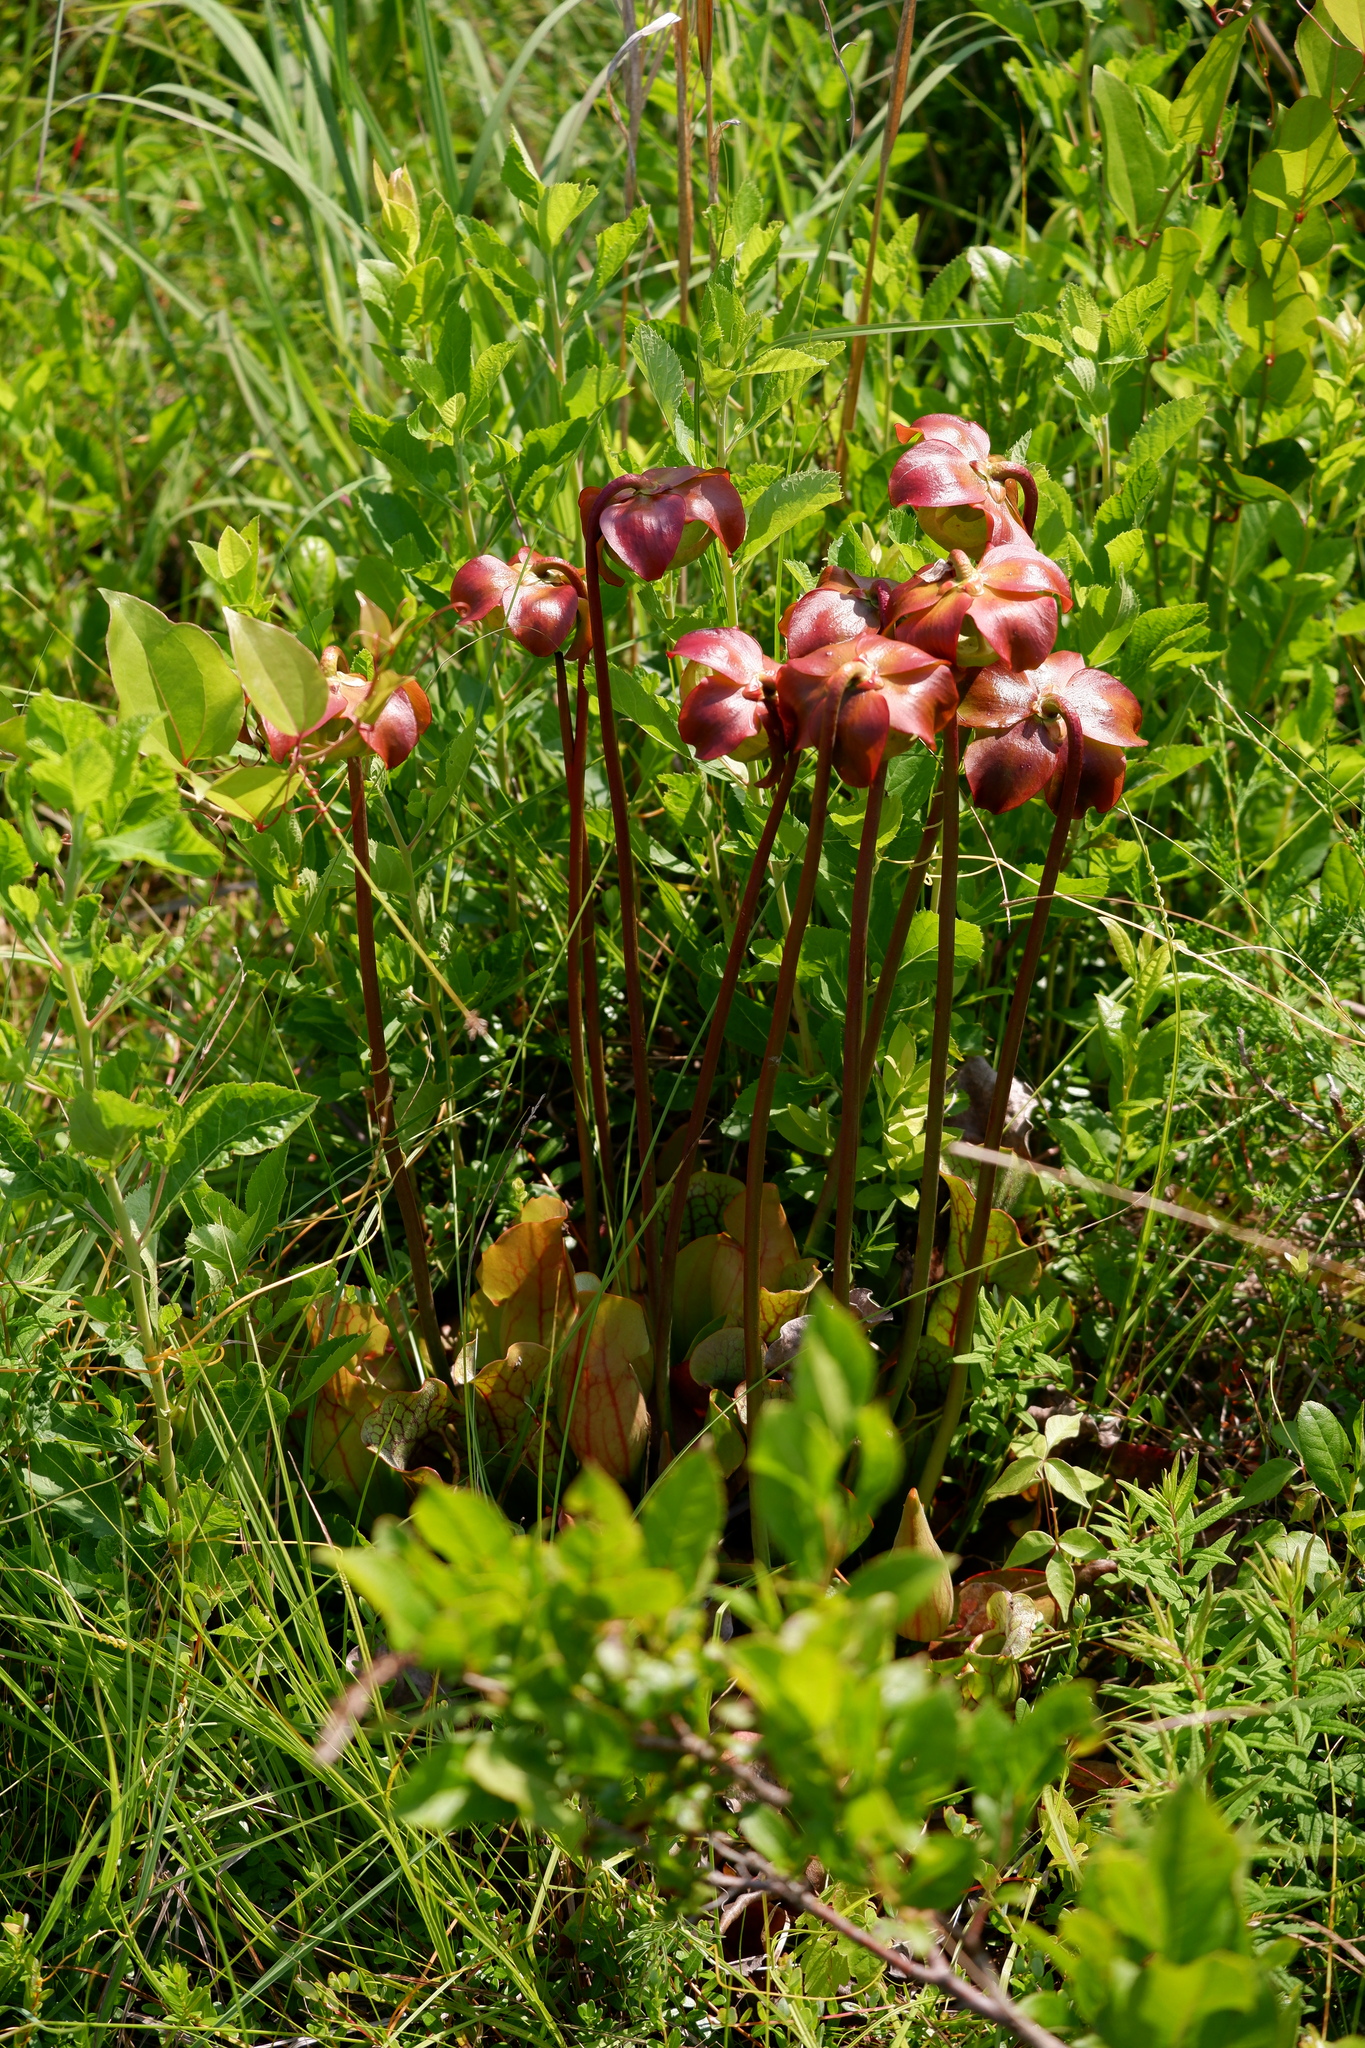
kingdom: Plantae
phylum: Tracheophyta
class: Magnoliopsida
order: Ericales
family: Sarraceniaceae
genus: Sarracenia
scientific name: Sarracenia purpurea
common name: Pitcherplant
